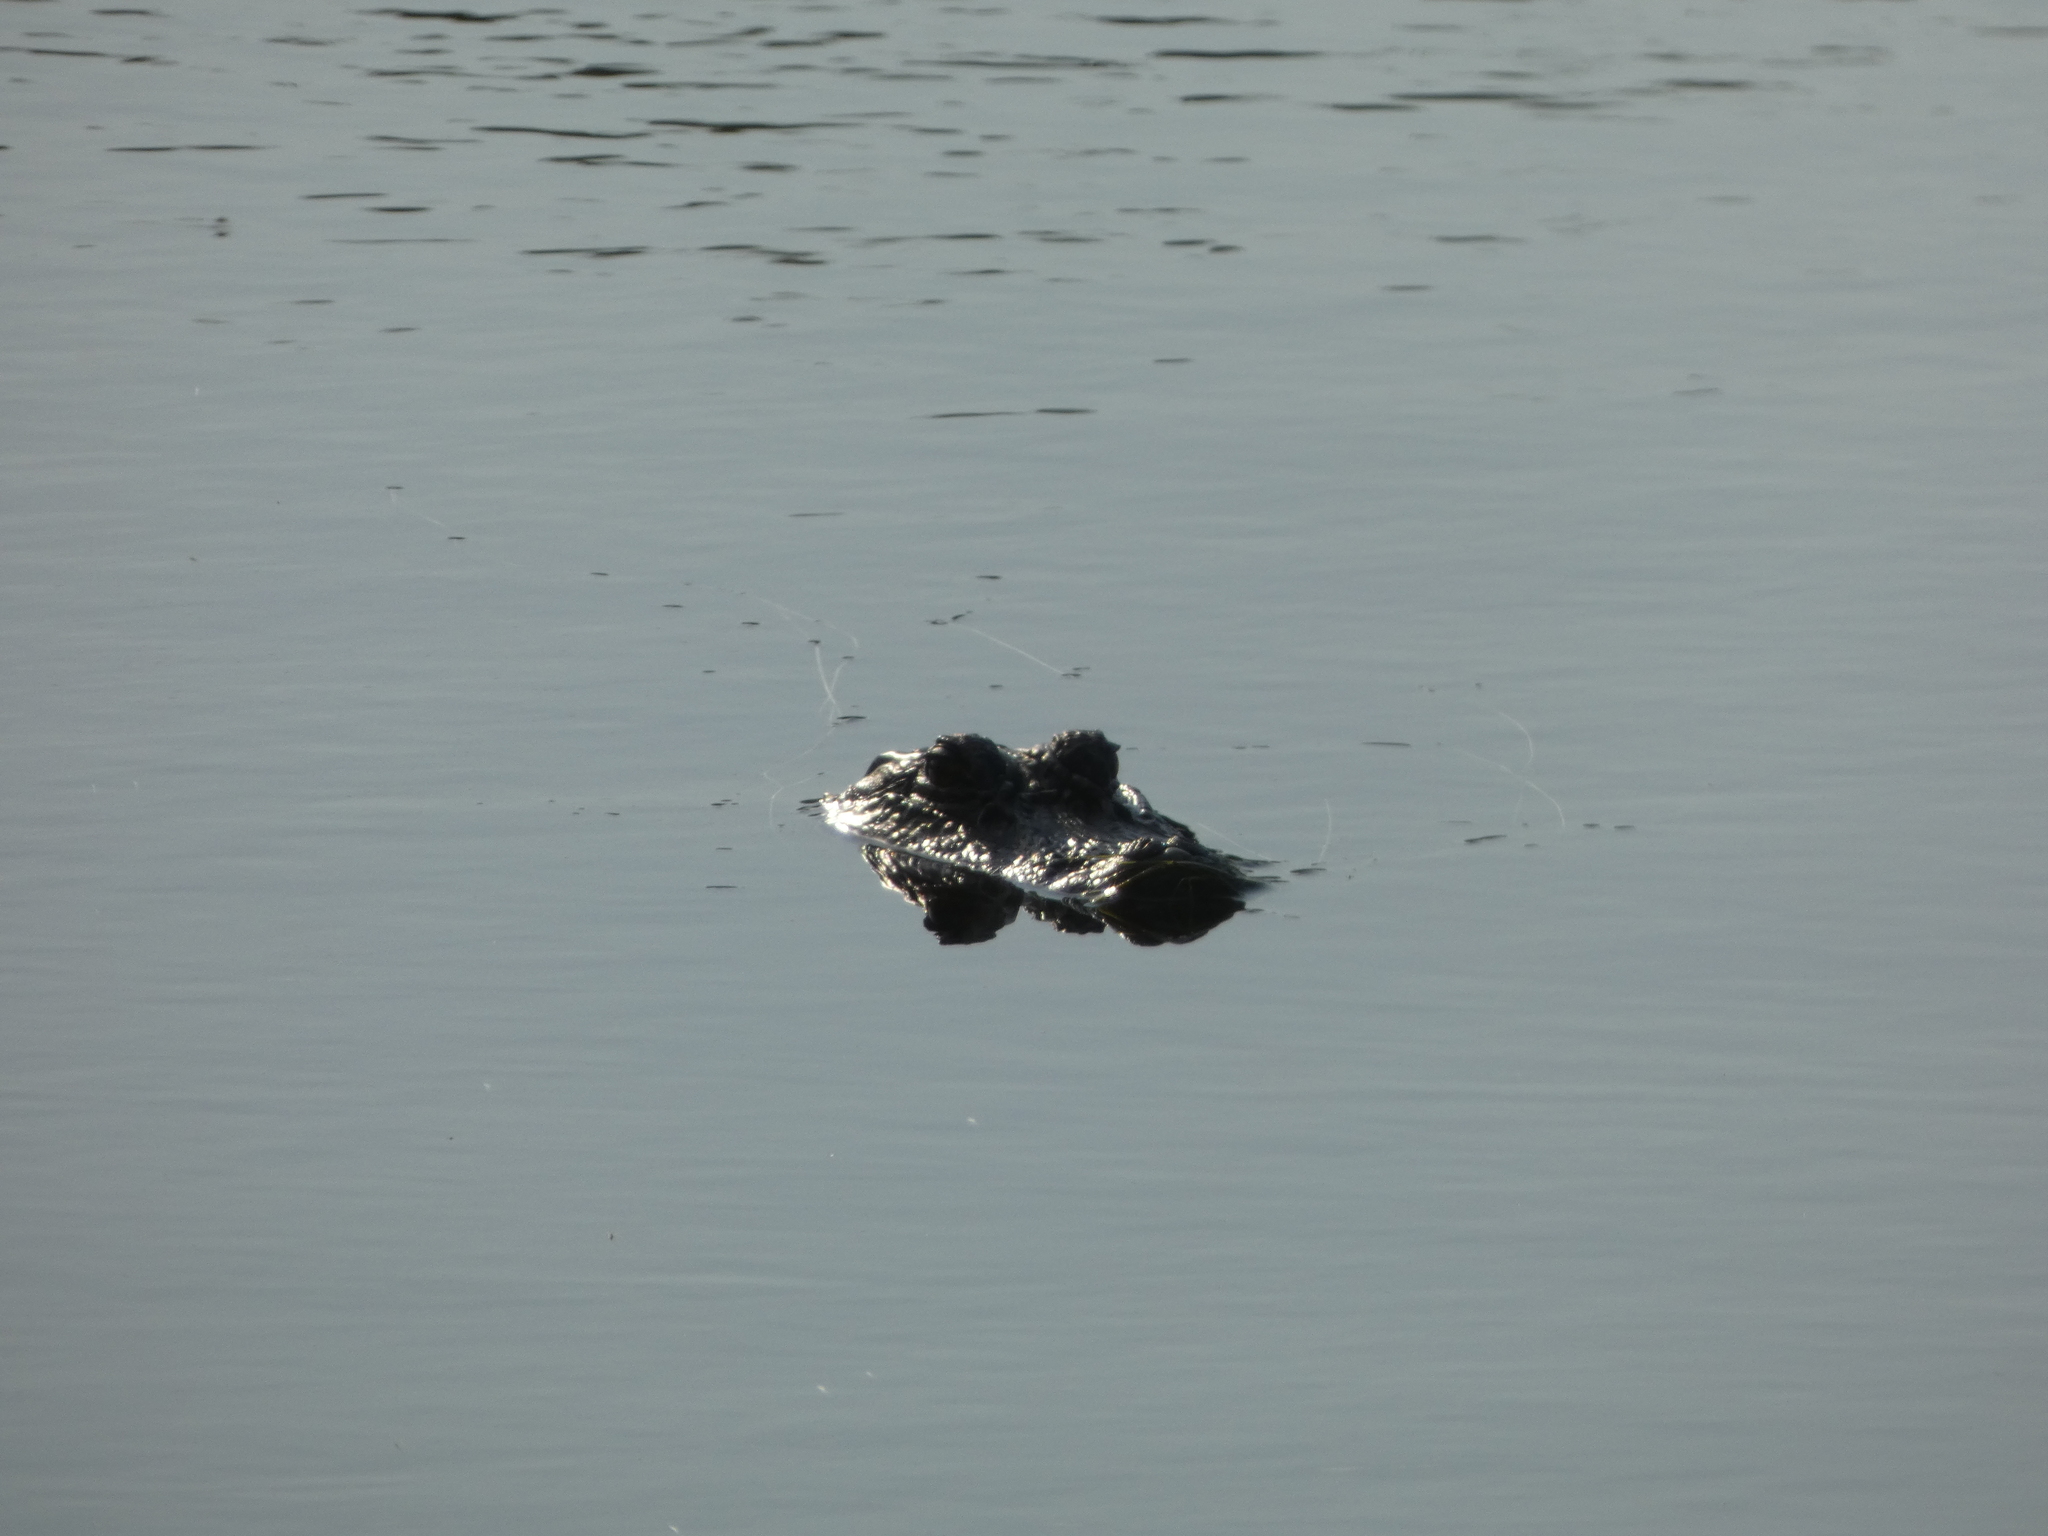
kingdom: Animalia
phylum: Chordata
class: Crocodylia
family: Alligatoridae
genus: Alligator
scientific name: Alligator mississippiensis
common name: American alligator
